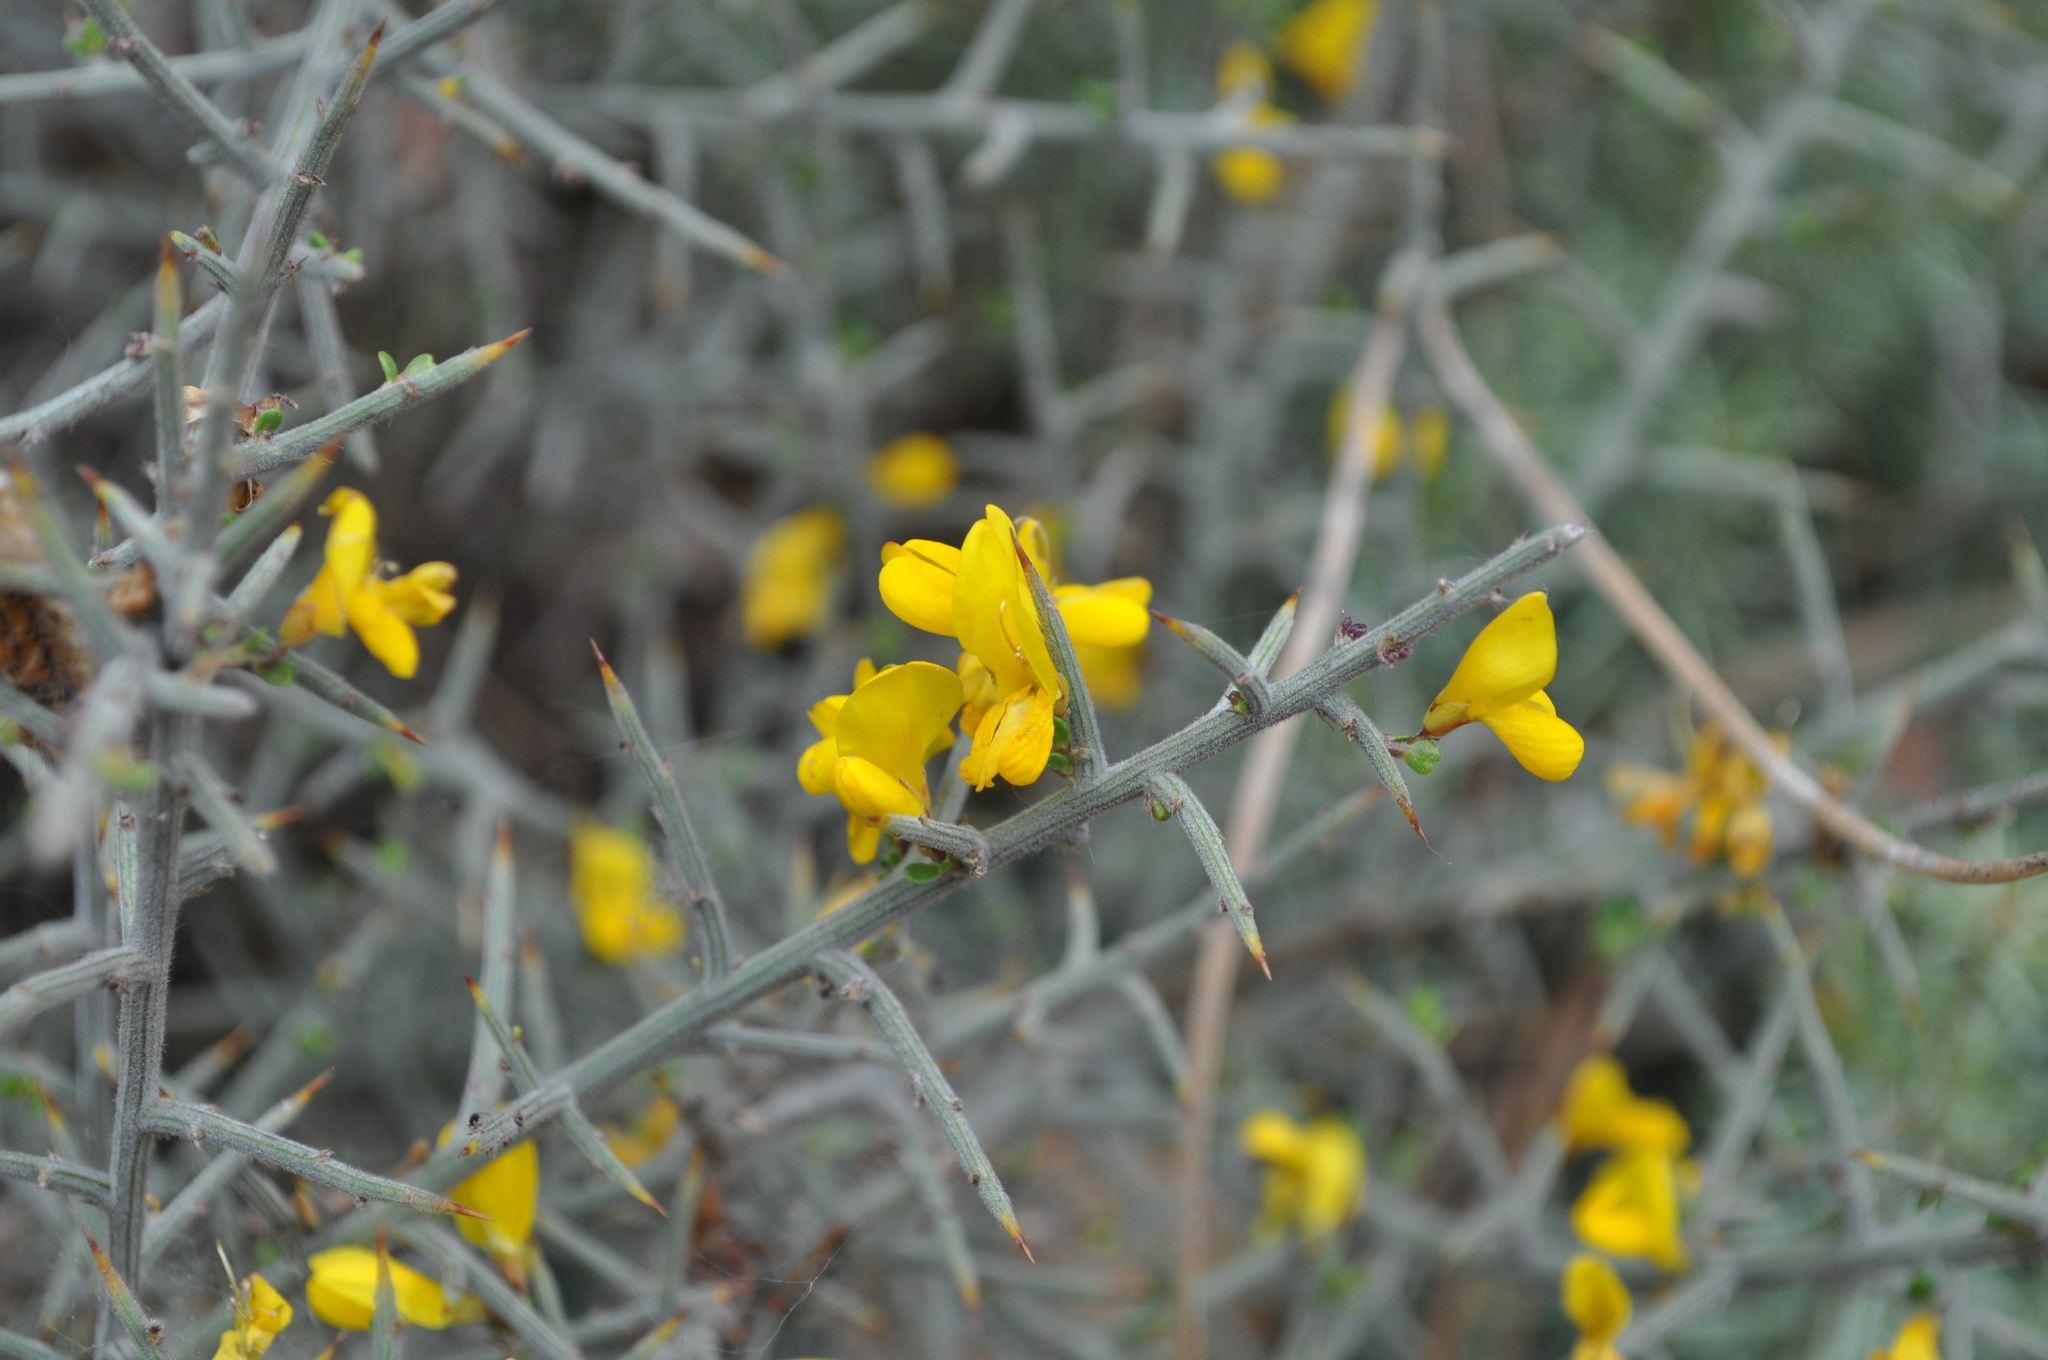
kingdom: Plantae
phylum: Tracheophyta
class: Magnoliopsida
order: Fabales
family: Fabaceae
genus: Genista
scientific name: Genista scorpius
